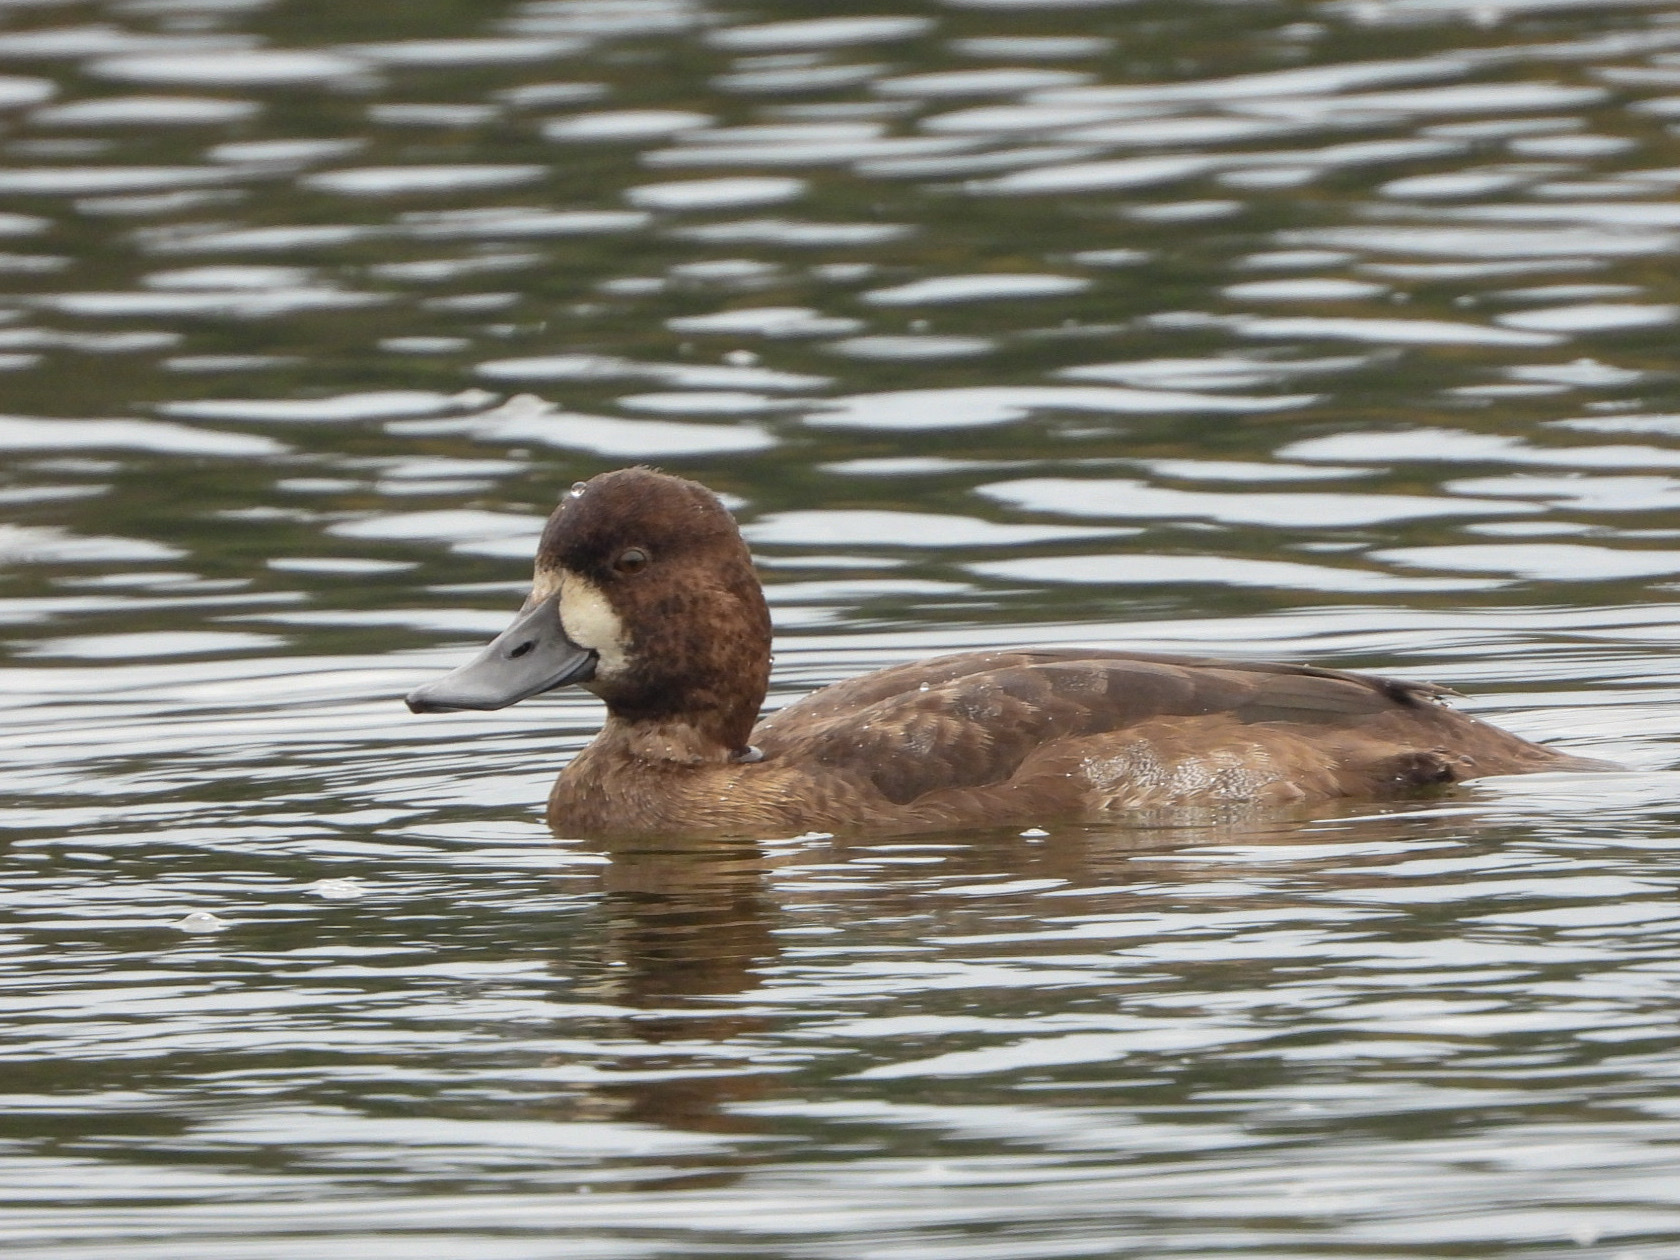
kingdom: Animalia
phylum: Chordata
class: Aves
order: Anseriformes
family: Anatidae
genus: Aythya
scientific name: Aythya marila
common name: Greater scaup
